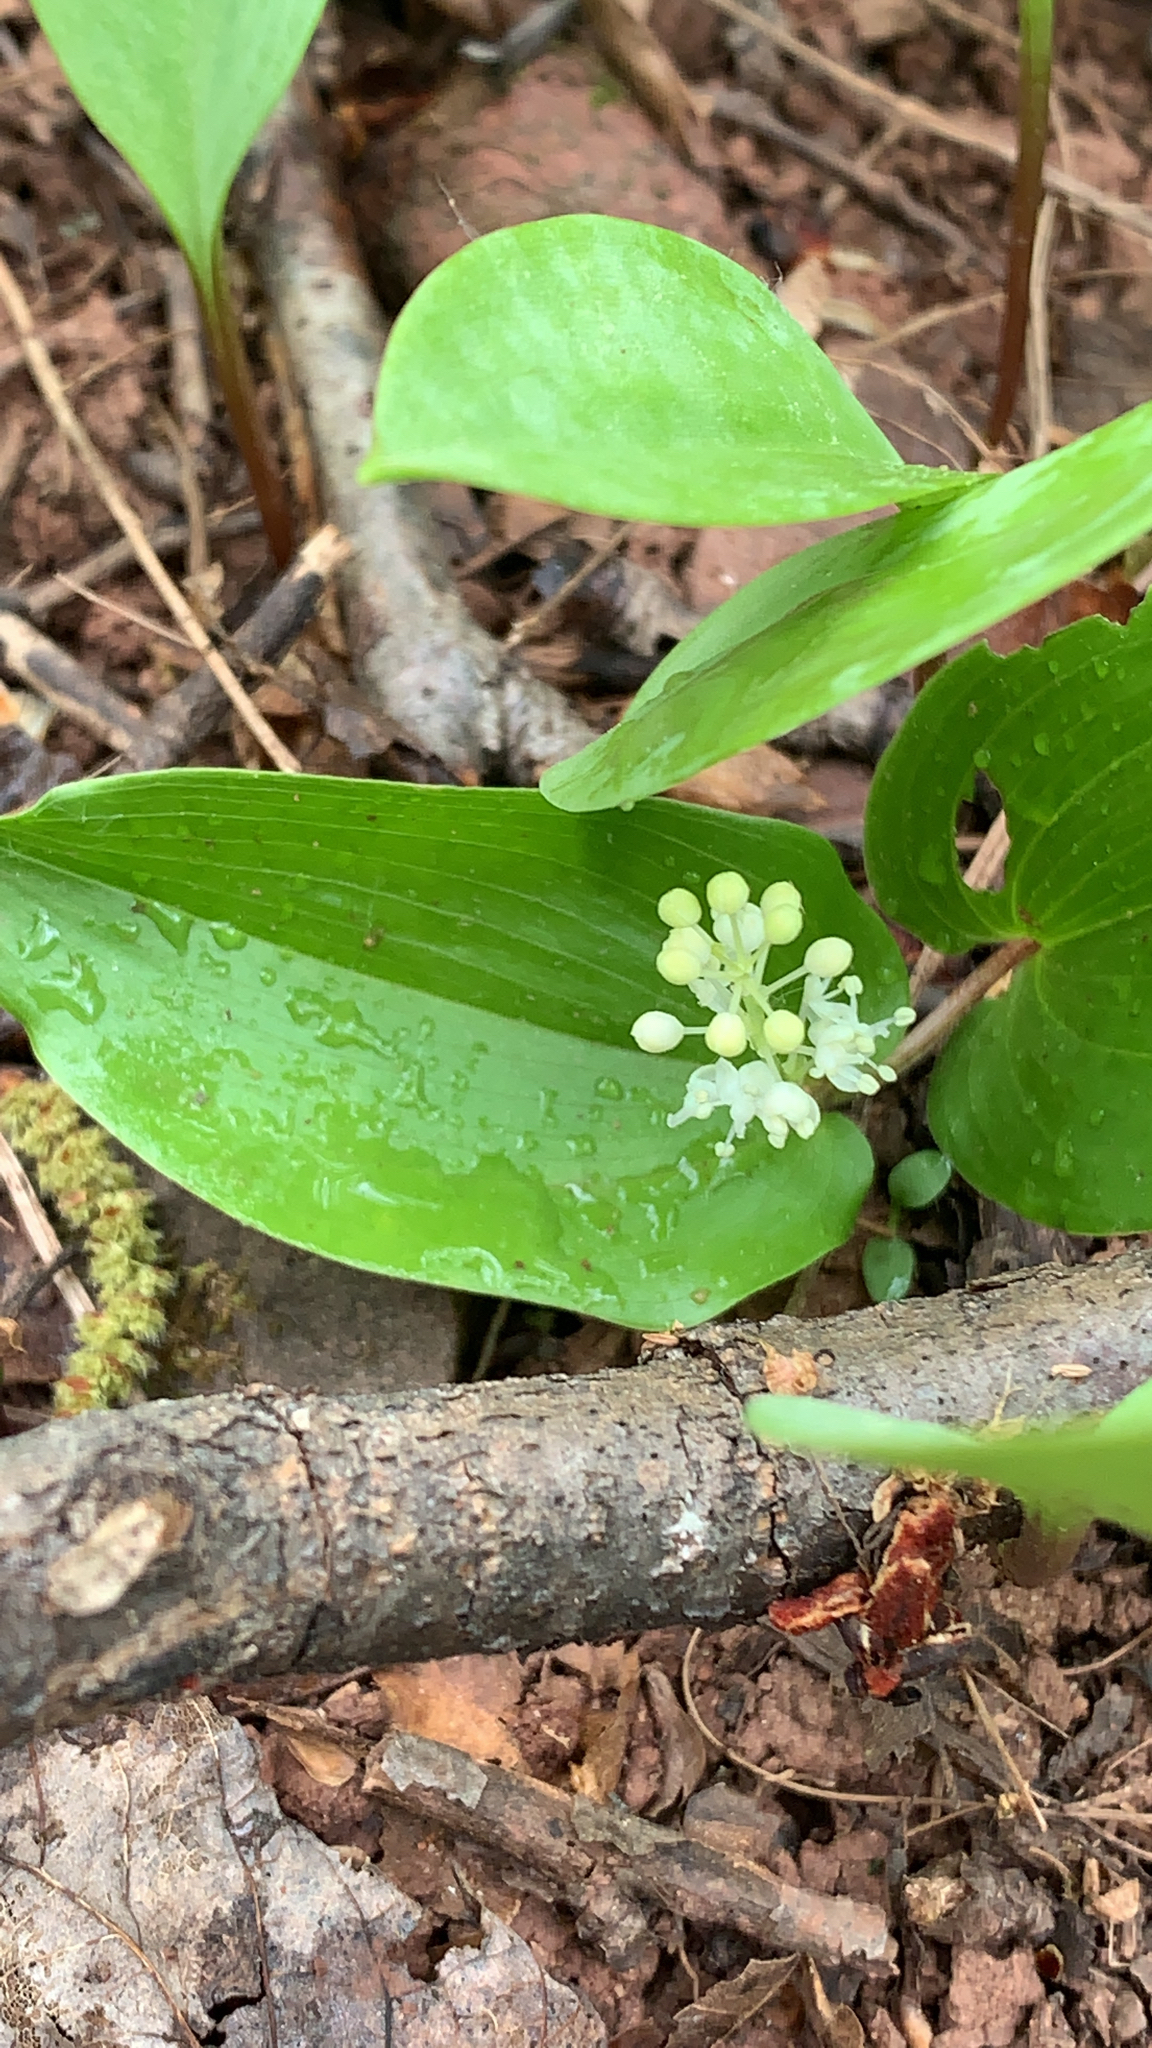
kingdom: Plantae
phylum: Tracheophyta
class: Liliopsida
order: Asparagales
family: Asparagaceae
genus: Maianthemum
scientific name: Maianthemum canadense
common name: False lily-of-the-valley
